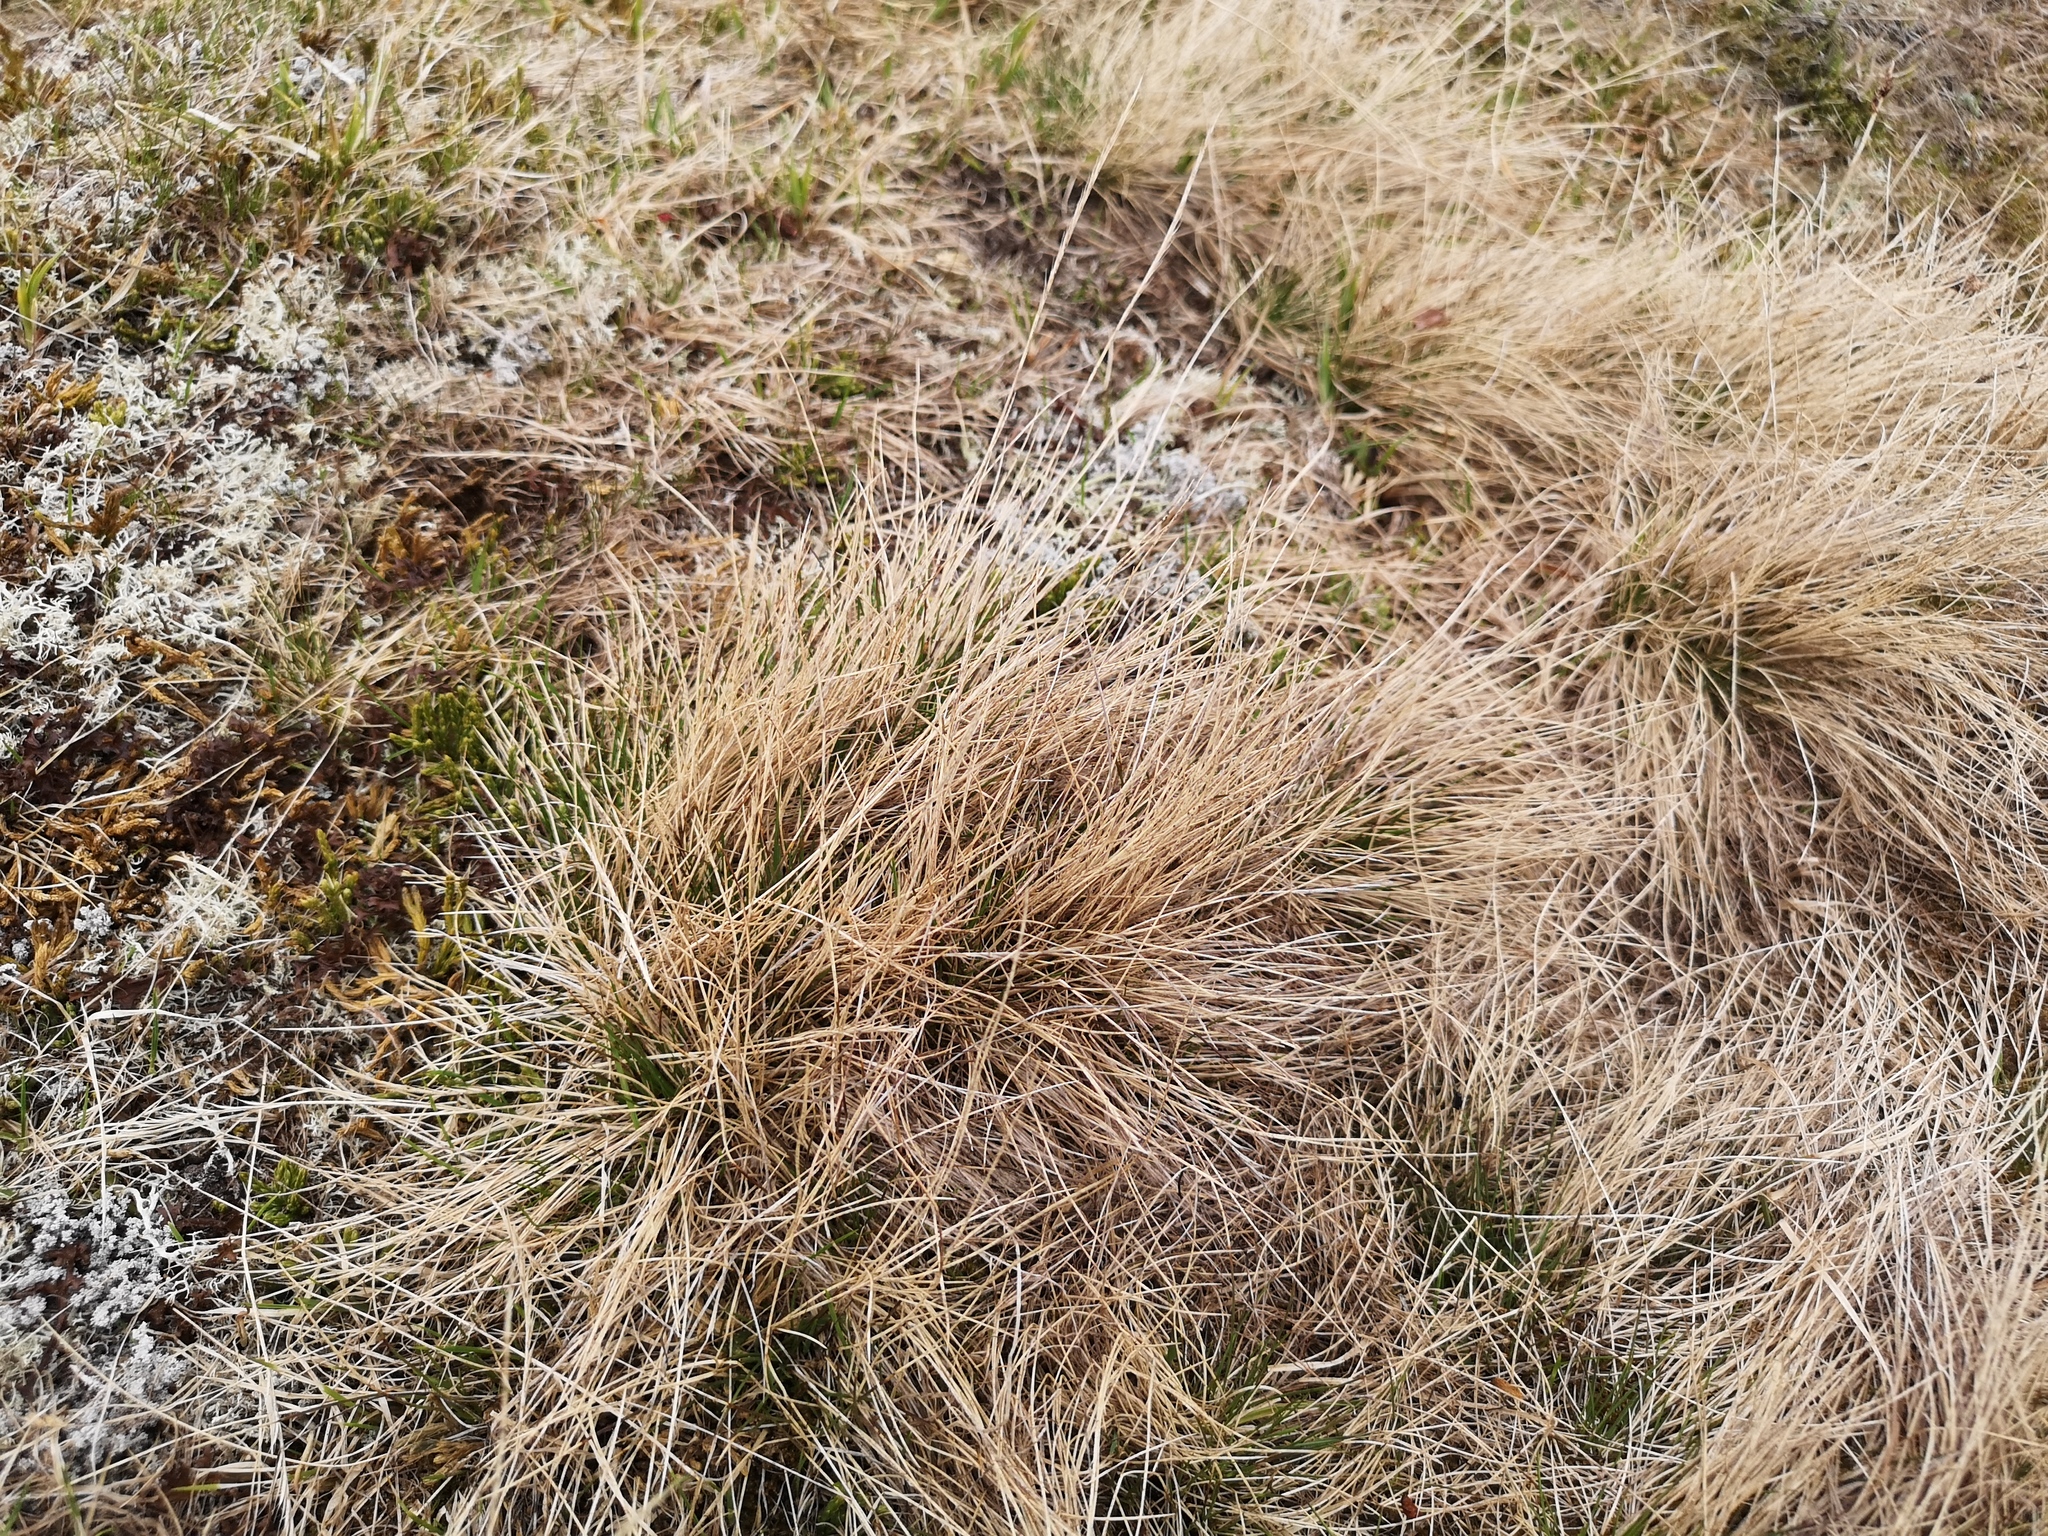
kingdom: Plantae
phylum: Tracheophyta
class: Liliopsida
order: Poales
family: Poaceae
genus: Nardus
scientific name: Nardus stricta
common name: Mat-grass
